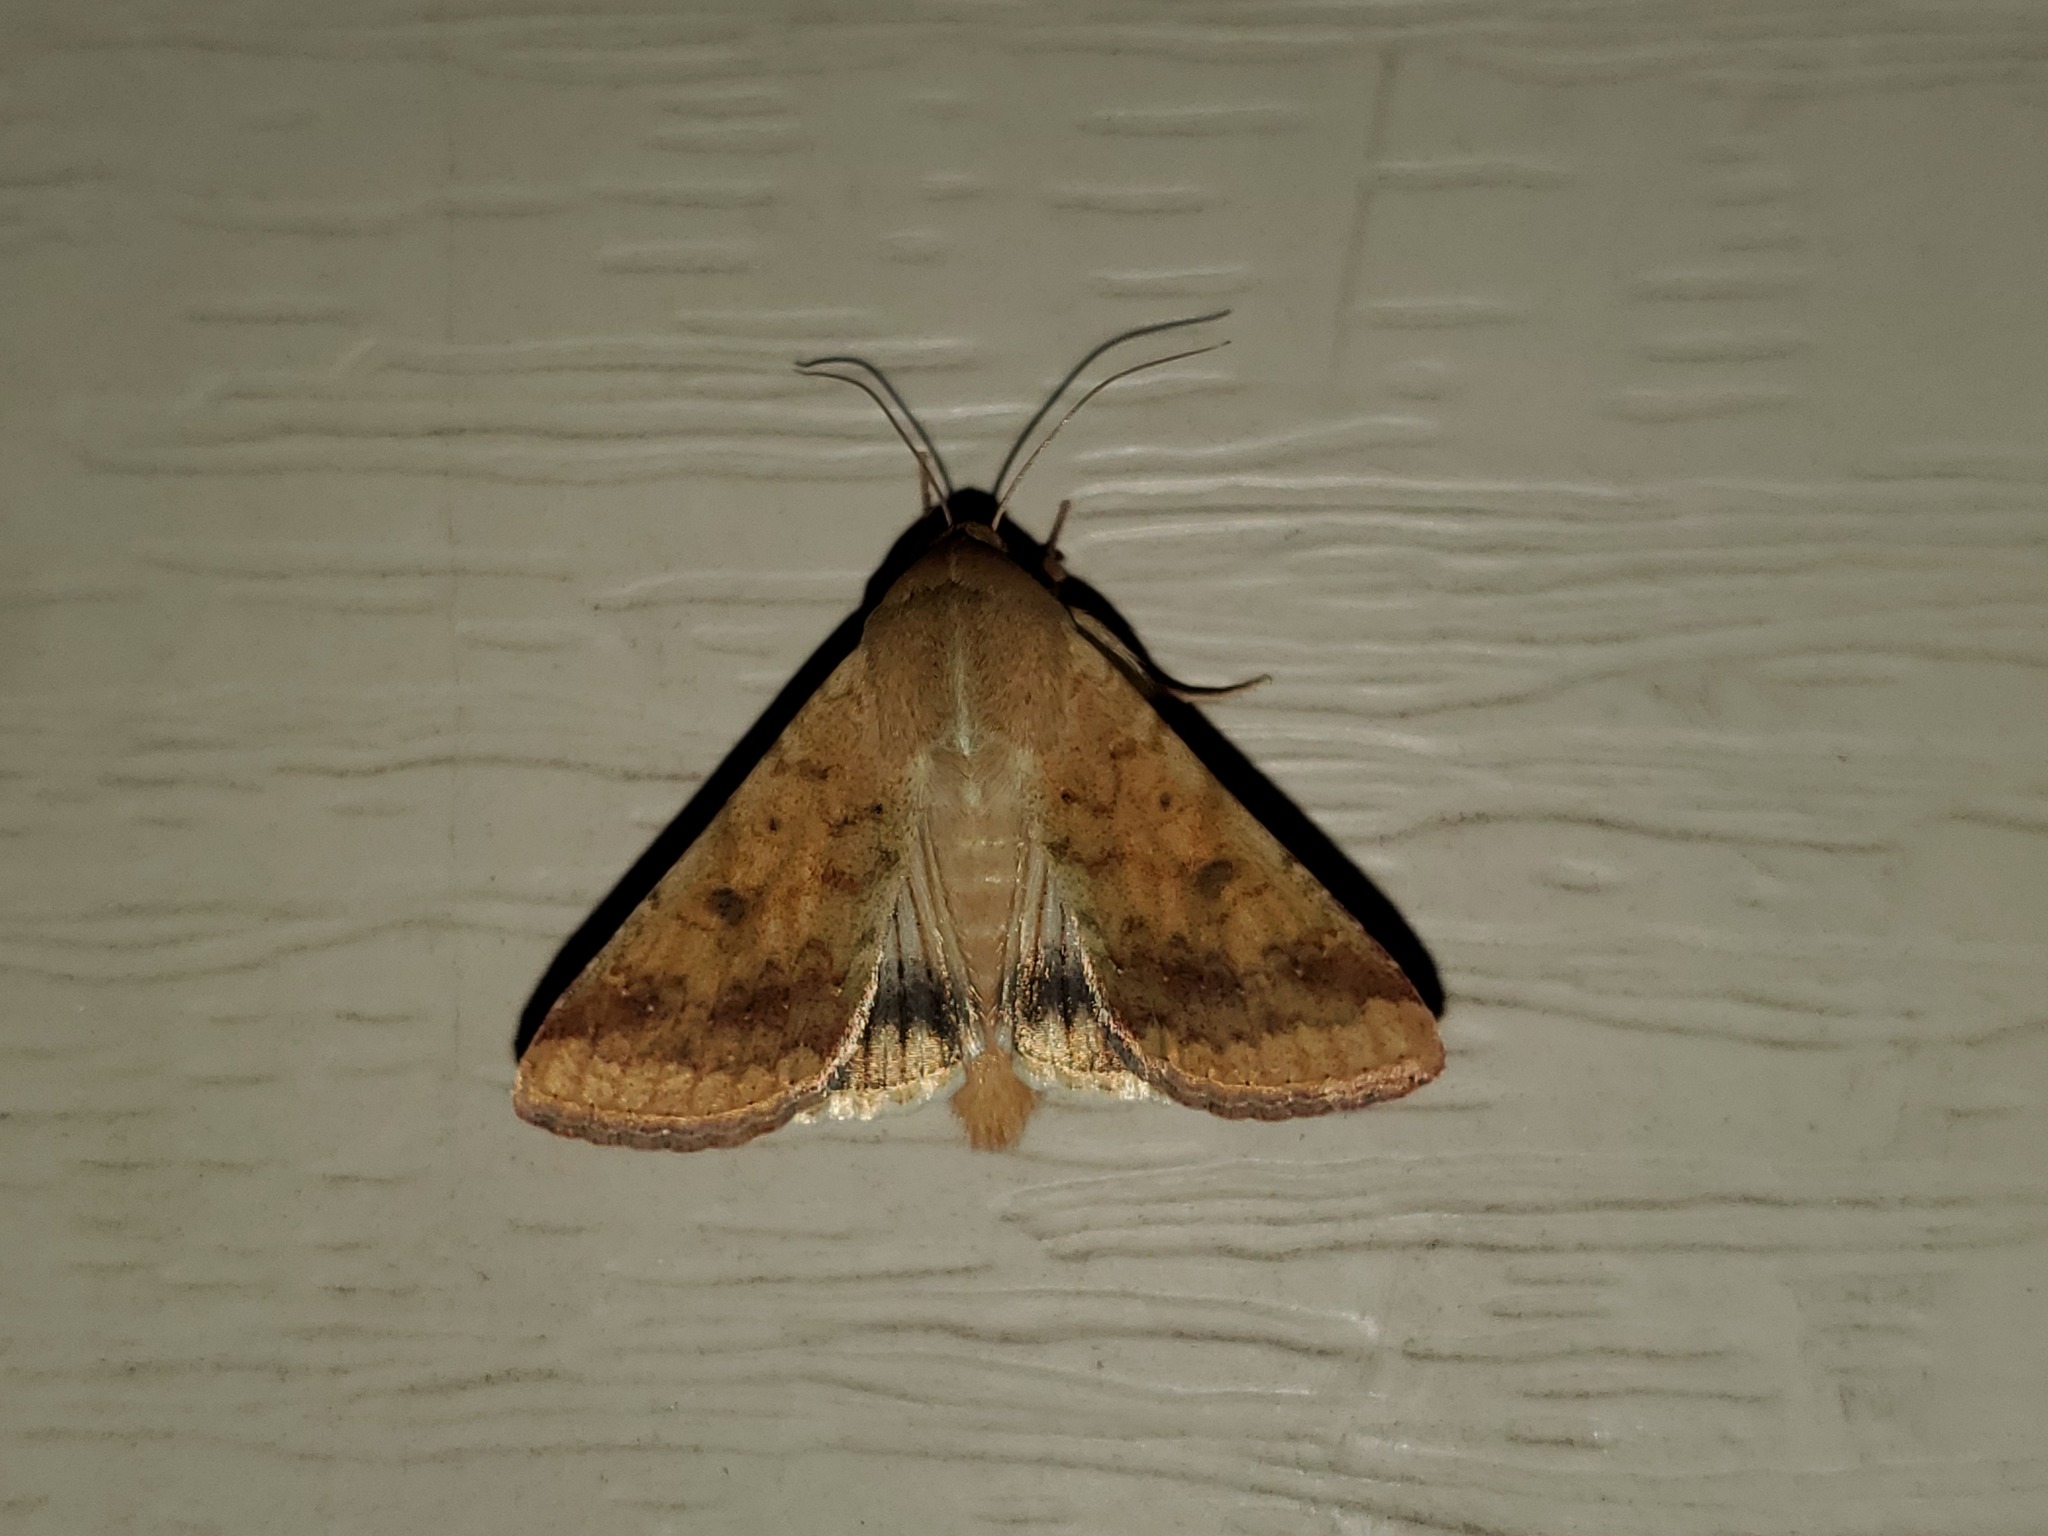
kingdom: Animalia
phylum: Arthropoda
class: Insecta
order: Lepidoptera
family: Noctuidae
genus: Helicoverpa
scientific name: Helicoverpa zea
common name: Bollworm
